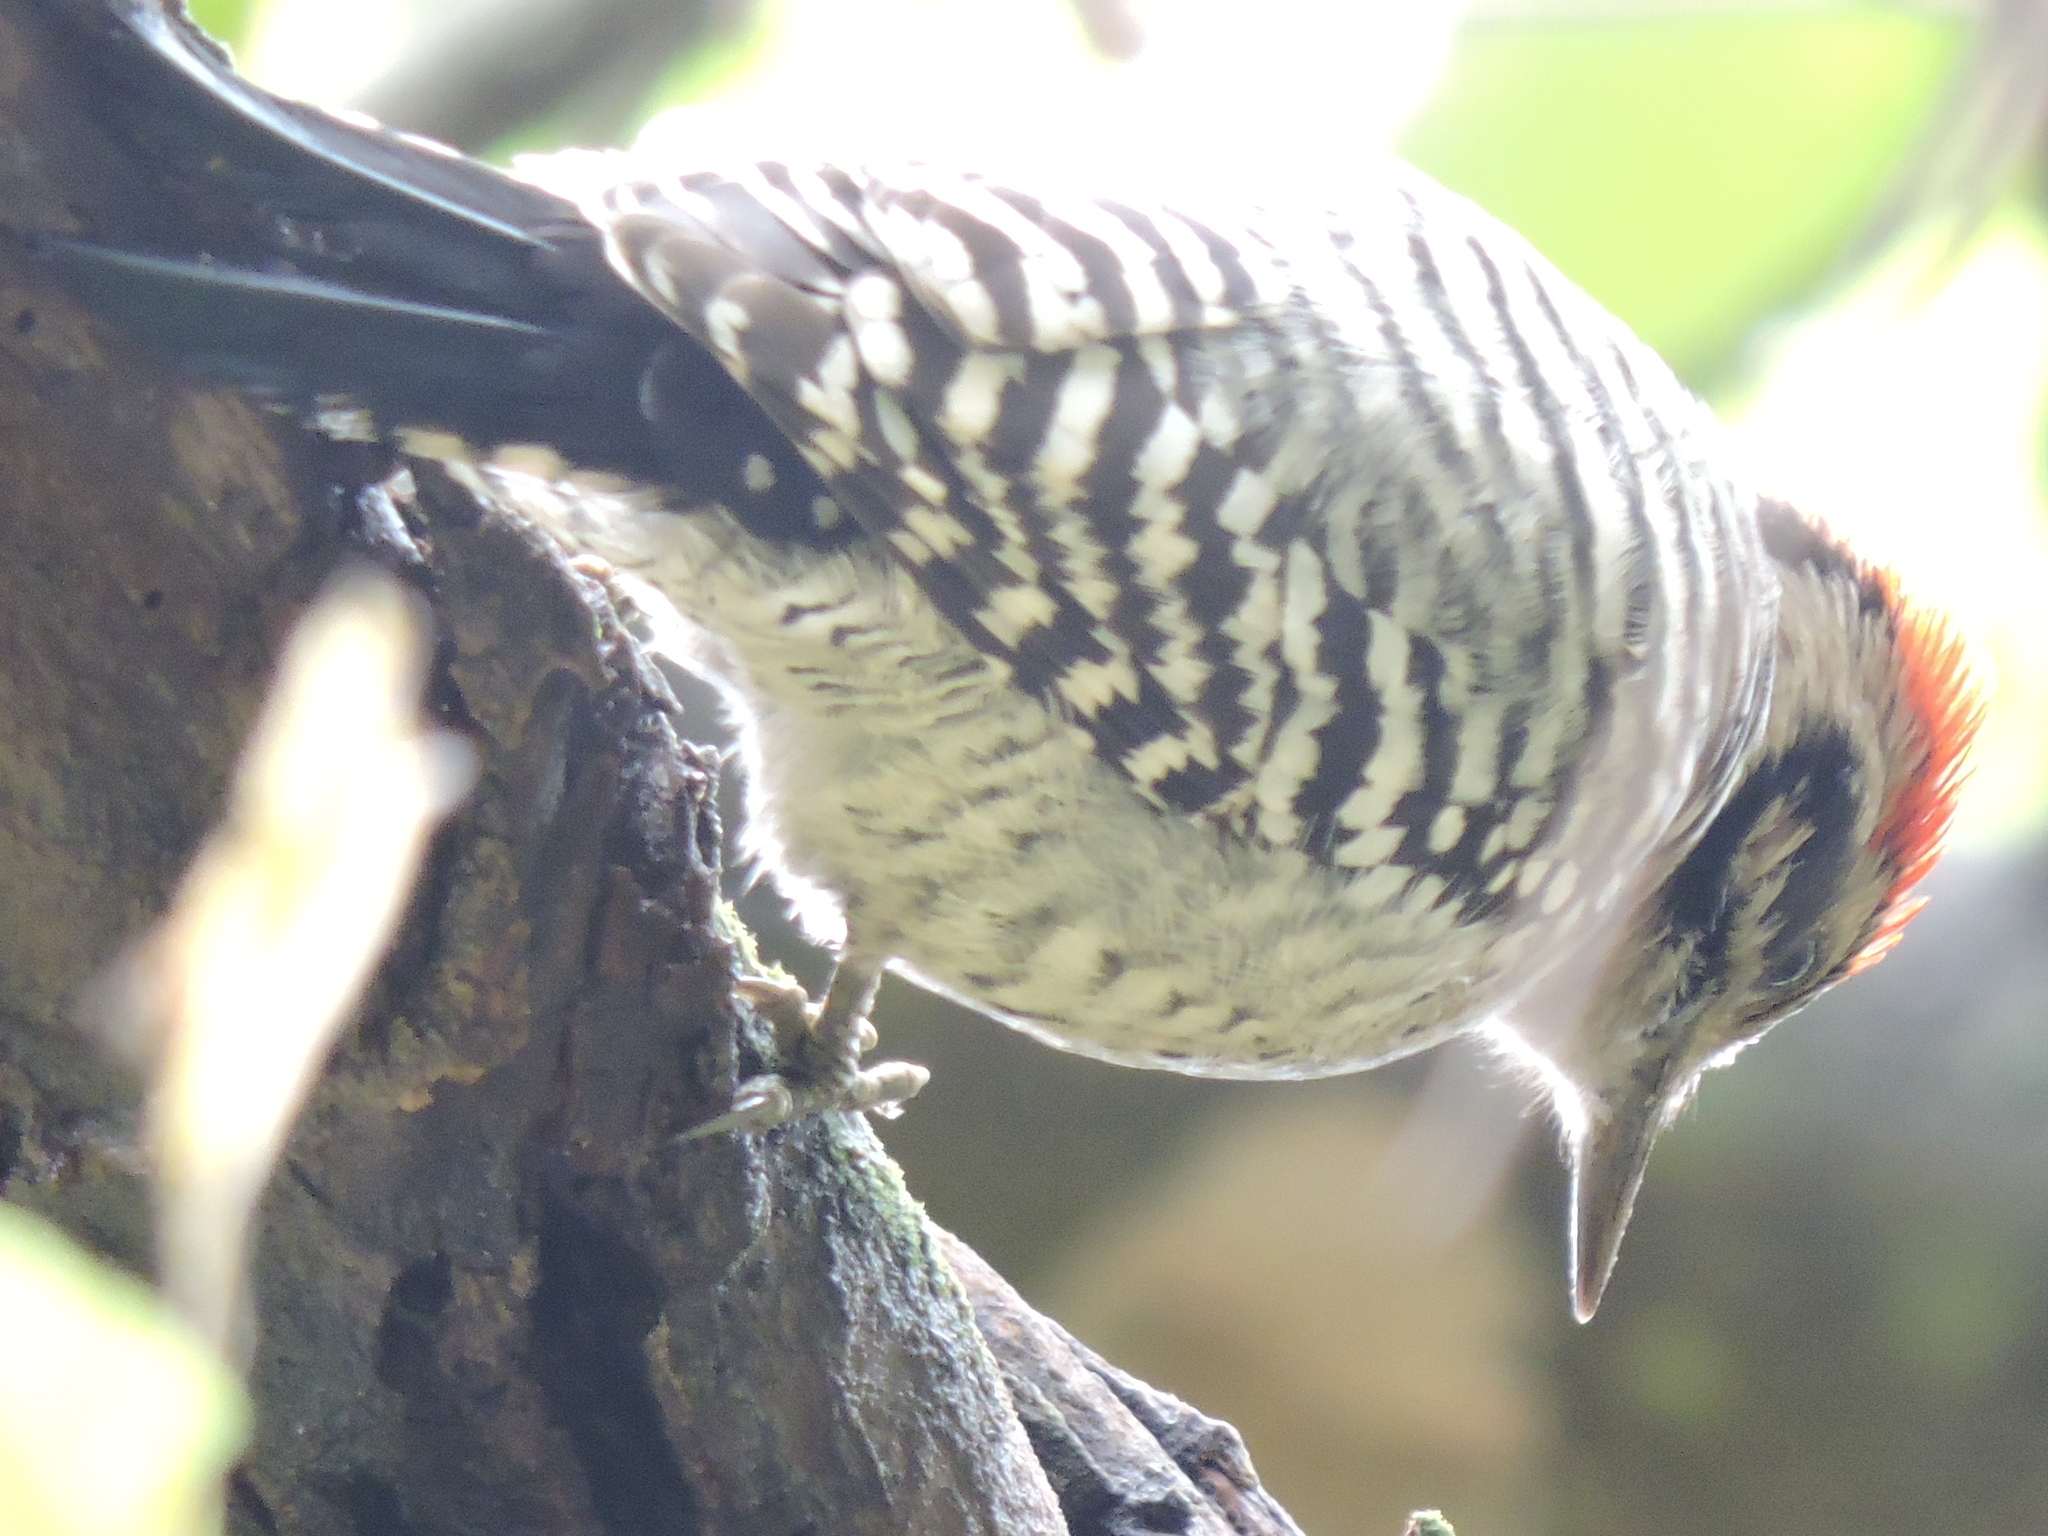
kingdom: Animalia
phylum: Chordata
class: Aves
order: Piciformes
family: Picidae
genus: Dryobates
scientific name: Dryobates scalaris
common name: Ladder-backed woodpecker
